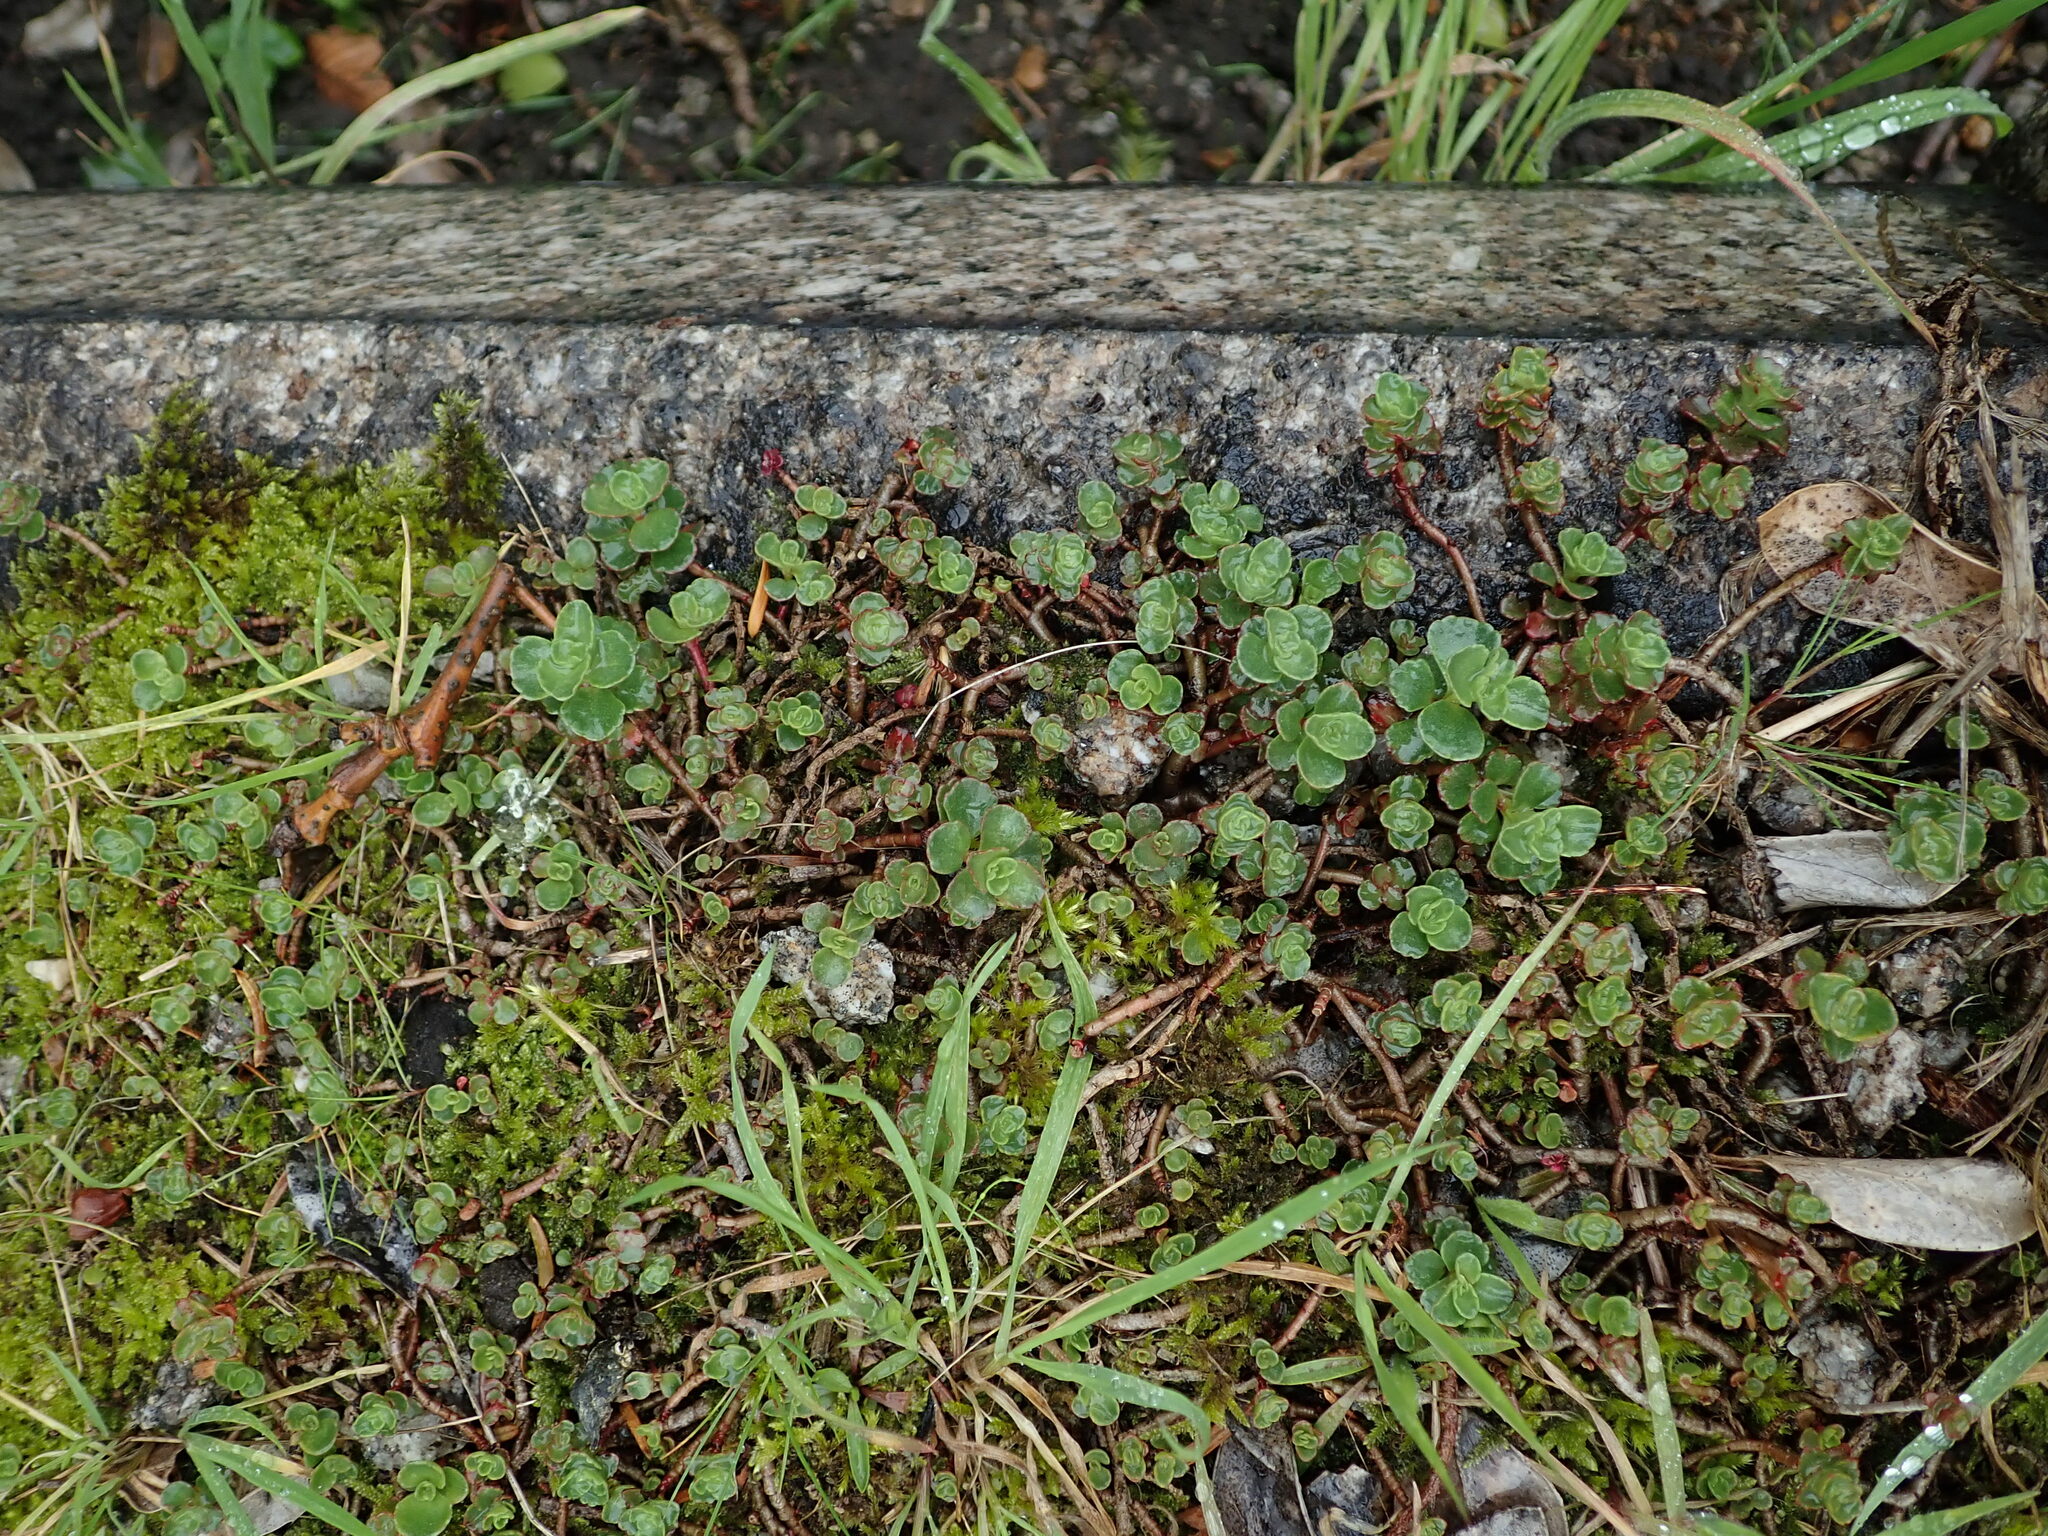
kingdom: Plantae
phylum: Tracheophyta
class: Magnoliopsida
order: Saxifragales
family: Crassulaceae
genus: Phedimus
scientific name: Phedimus spurius
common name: Caucasian stonecrop
